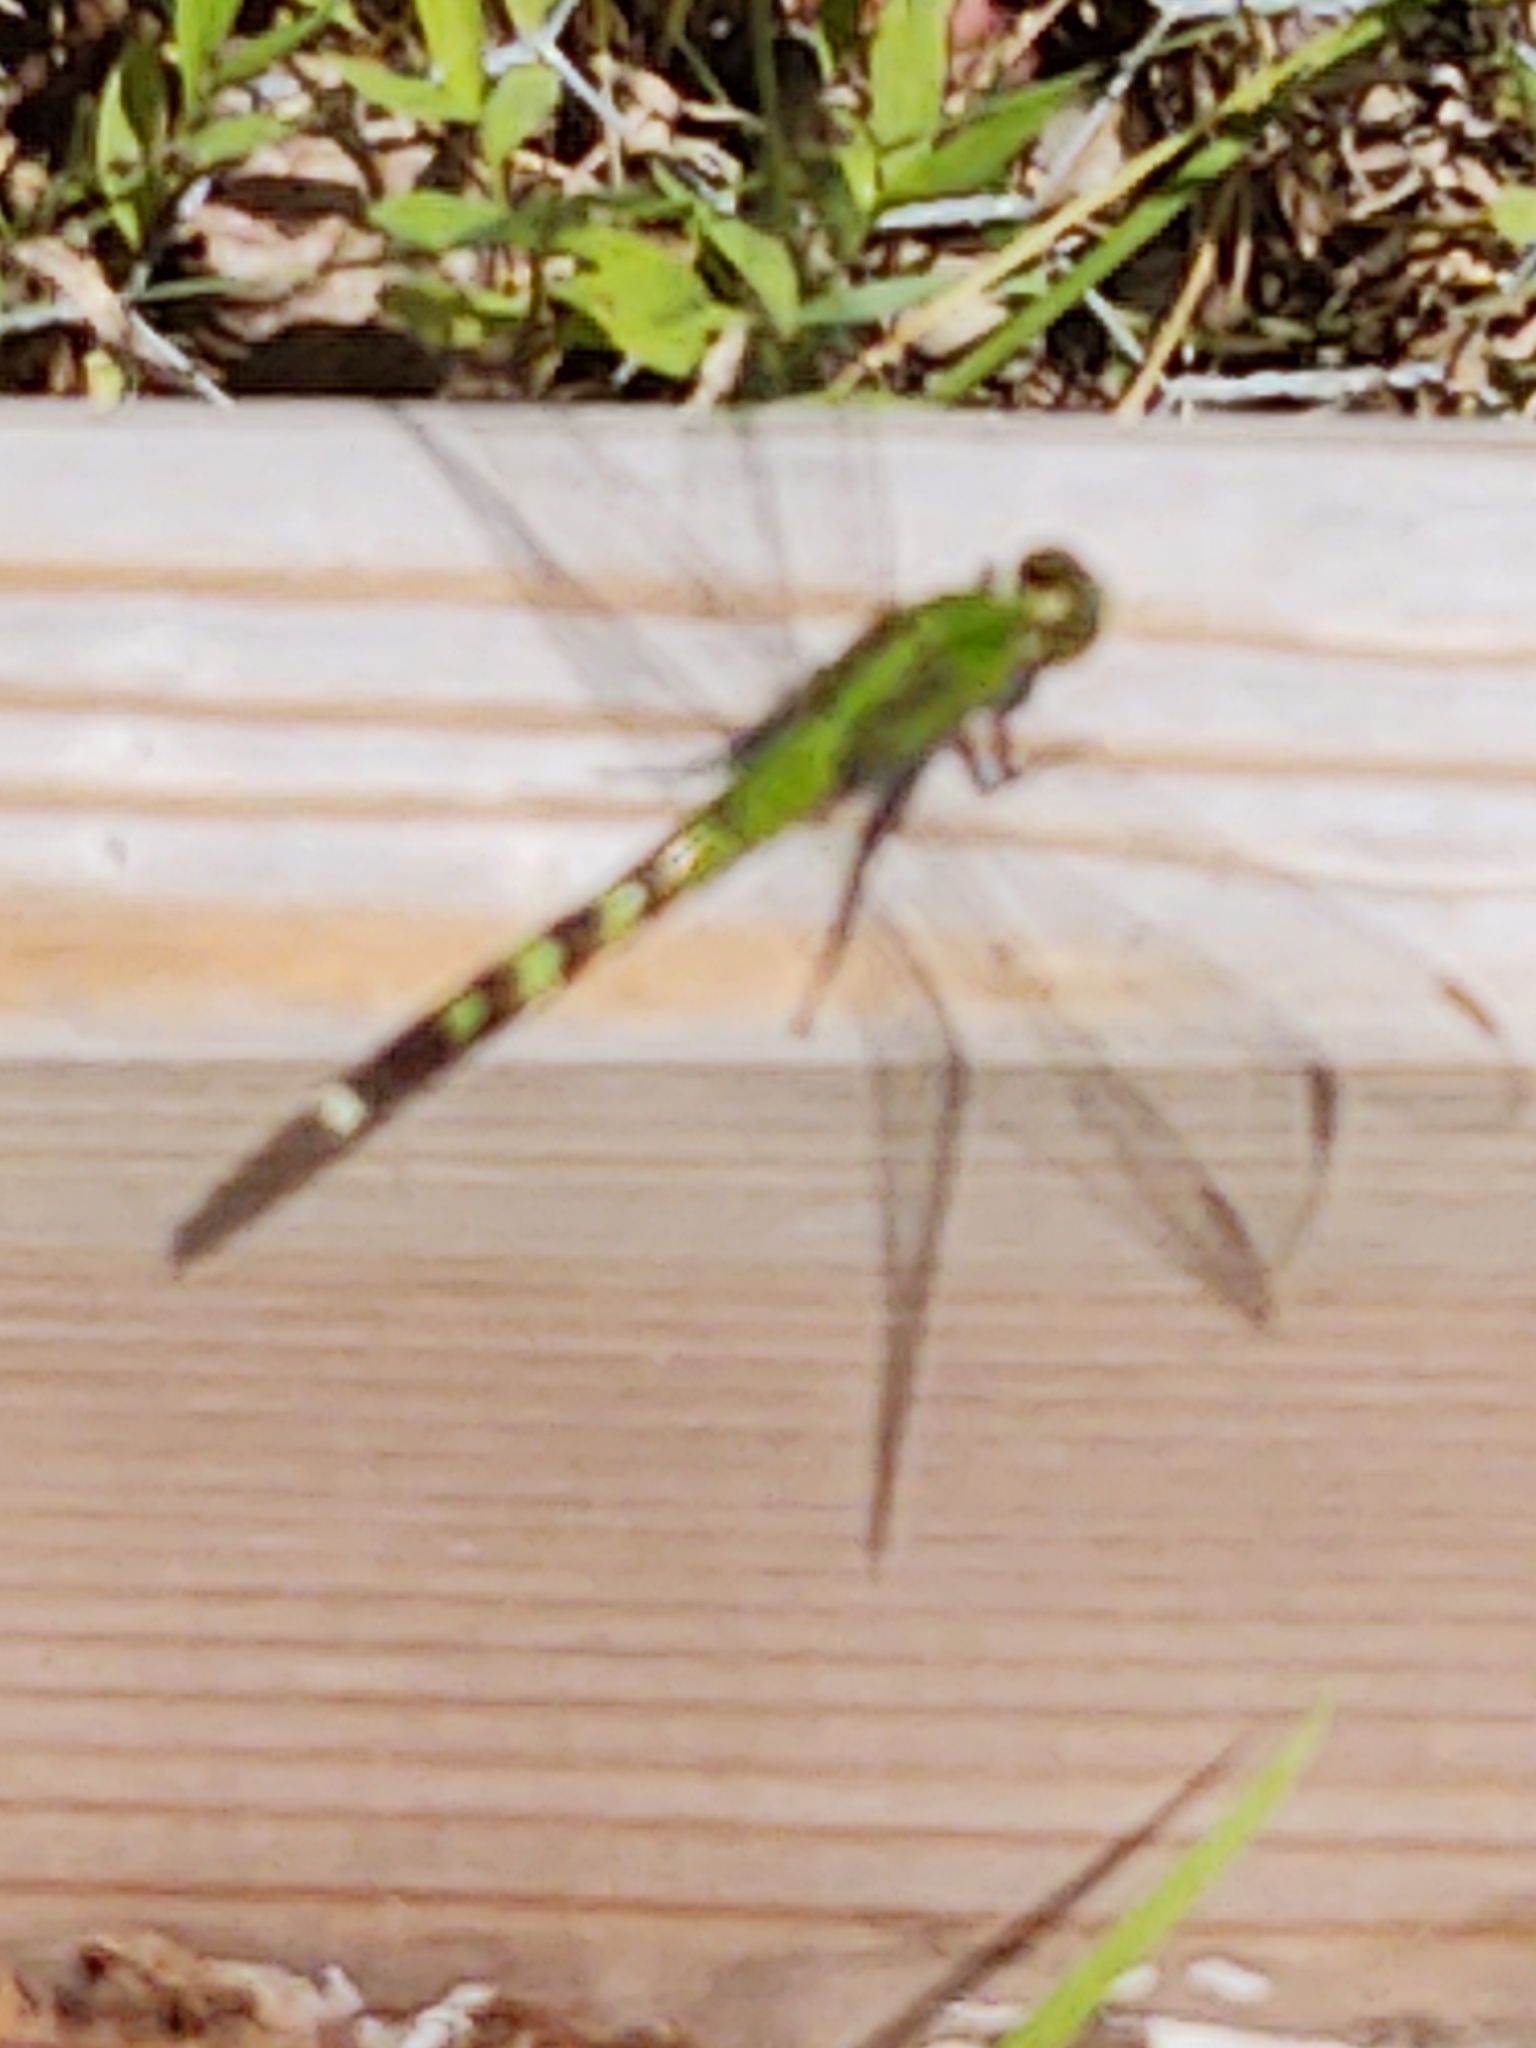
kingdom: Animalia
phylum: Arthropoda
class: Insecta
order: Odonata
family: Libellulidae
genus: Erythemis
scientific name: Erythemis simplicicollis
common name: Eastern pondhawk
